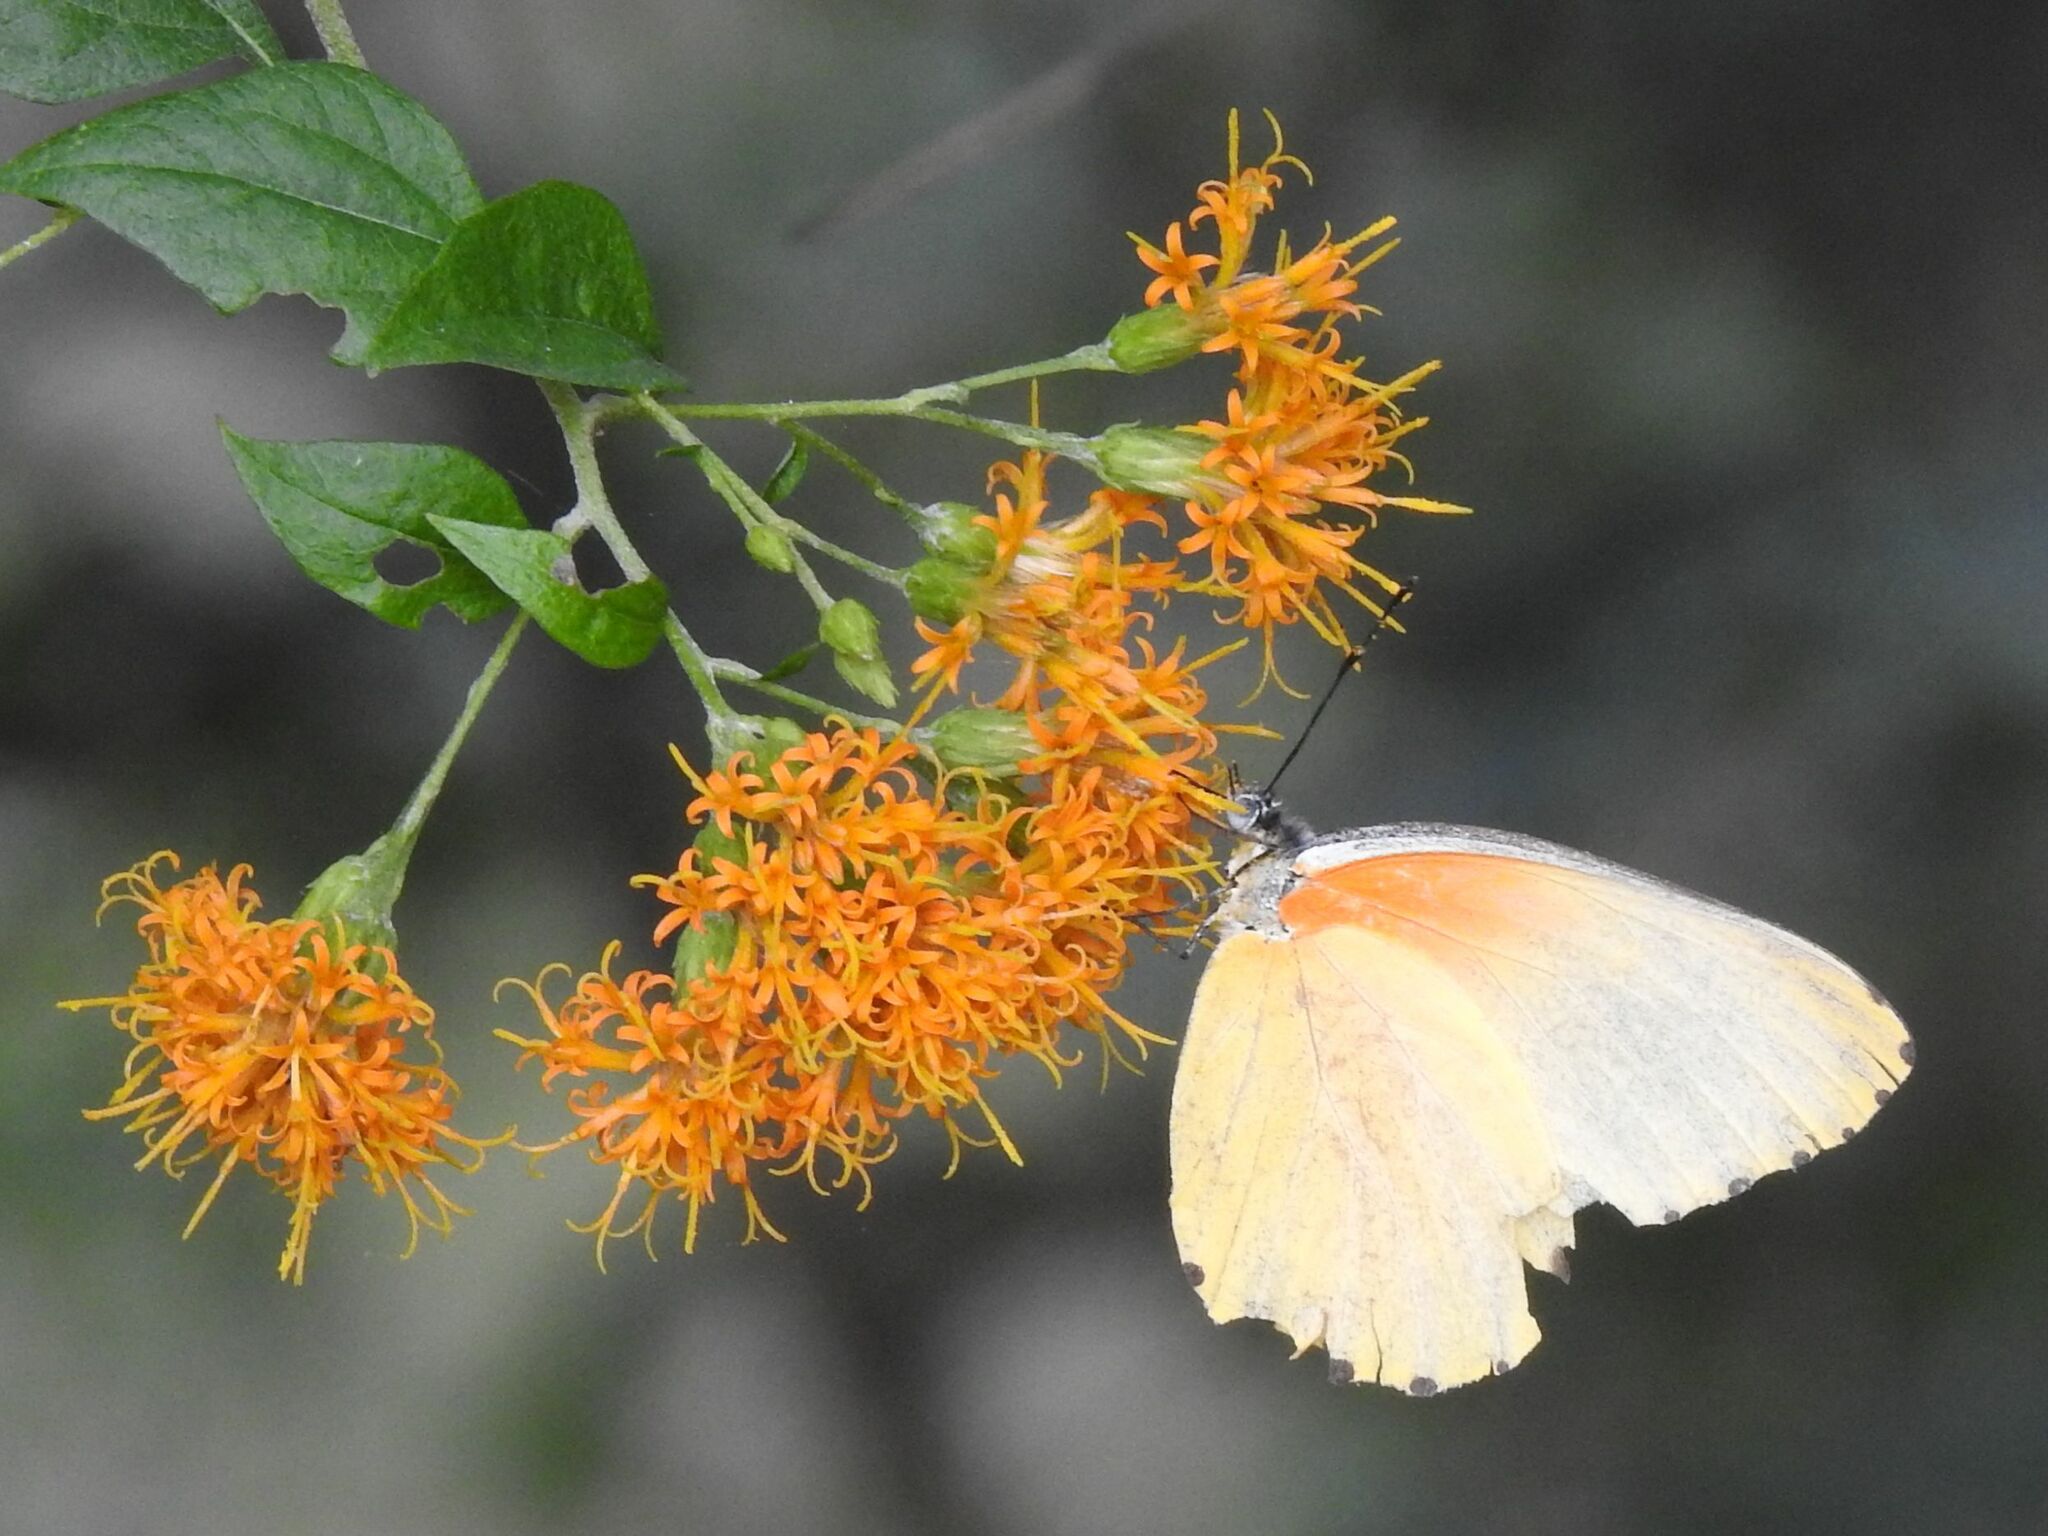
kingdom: Animalia
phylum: Arthropoda
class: Insecta
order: Lepidoptera
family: Pieridae
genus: Mylothris
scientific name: Mylothris agathina
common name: Eastern dotted border
